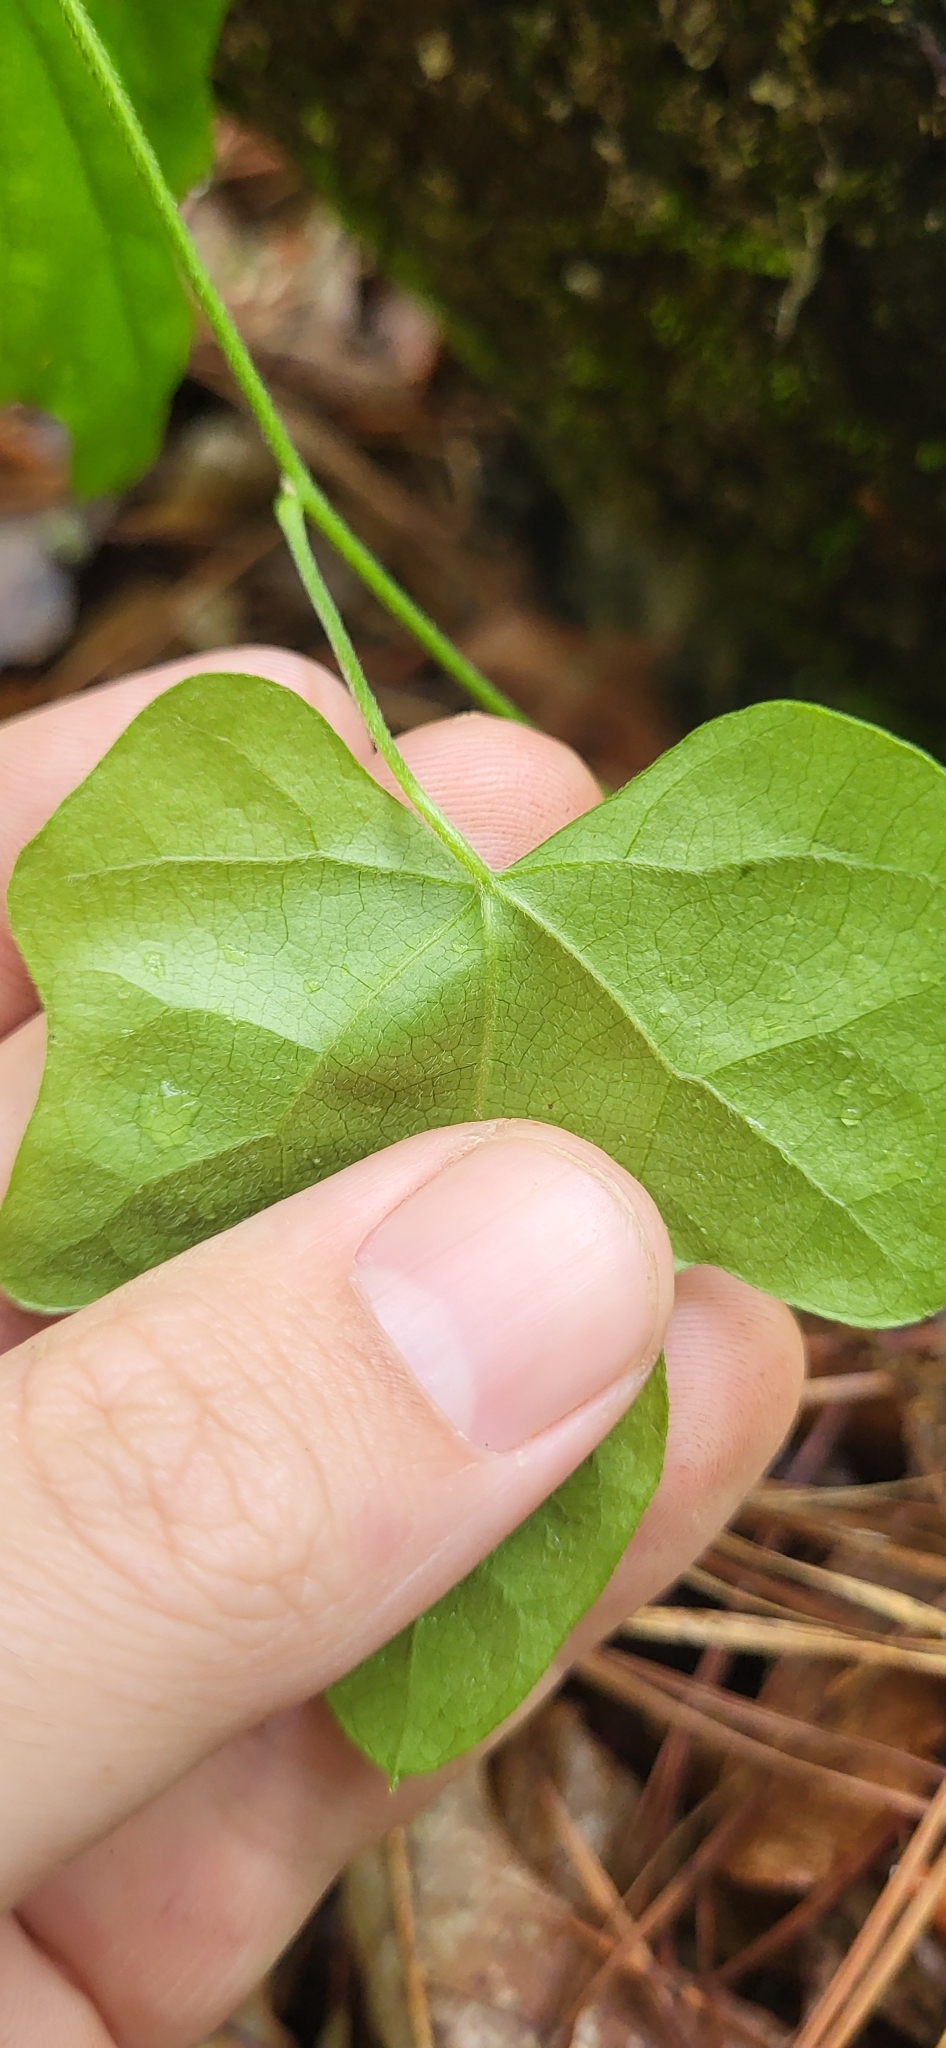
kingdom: Plantae
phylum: Tracheophyta
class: Magnoliopsida
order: Ranunculales
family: Menispermaceae
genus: Cocculus
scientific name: Cocculus carolinus
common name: Carolina moonseed
